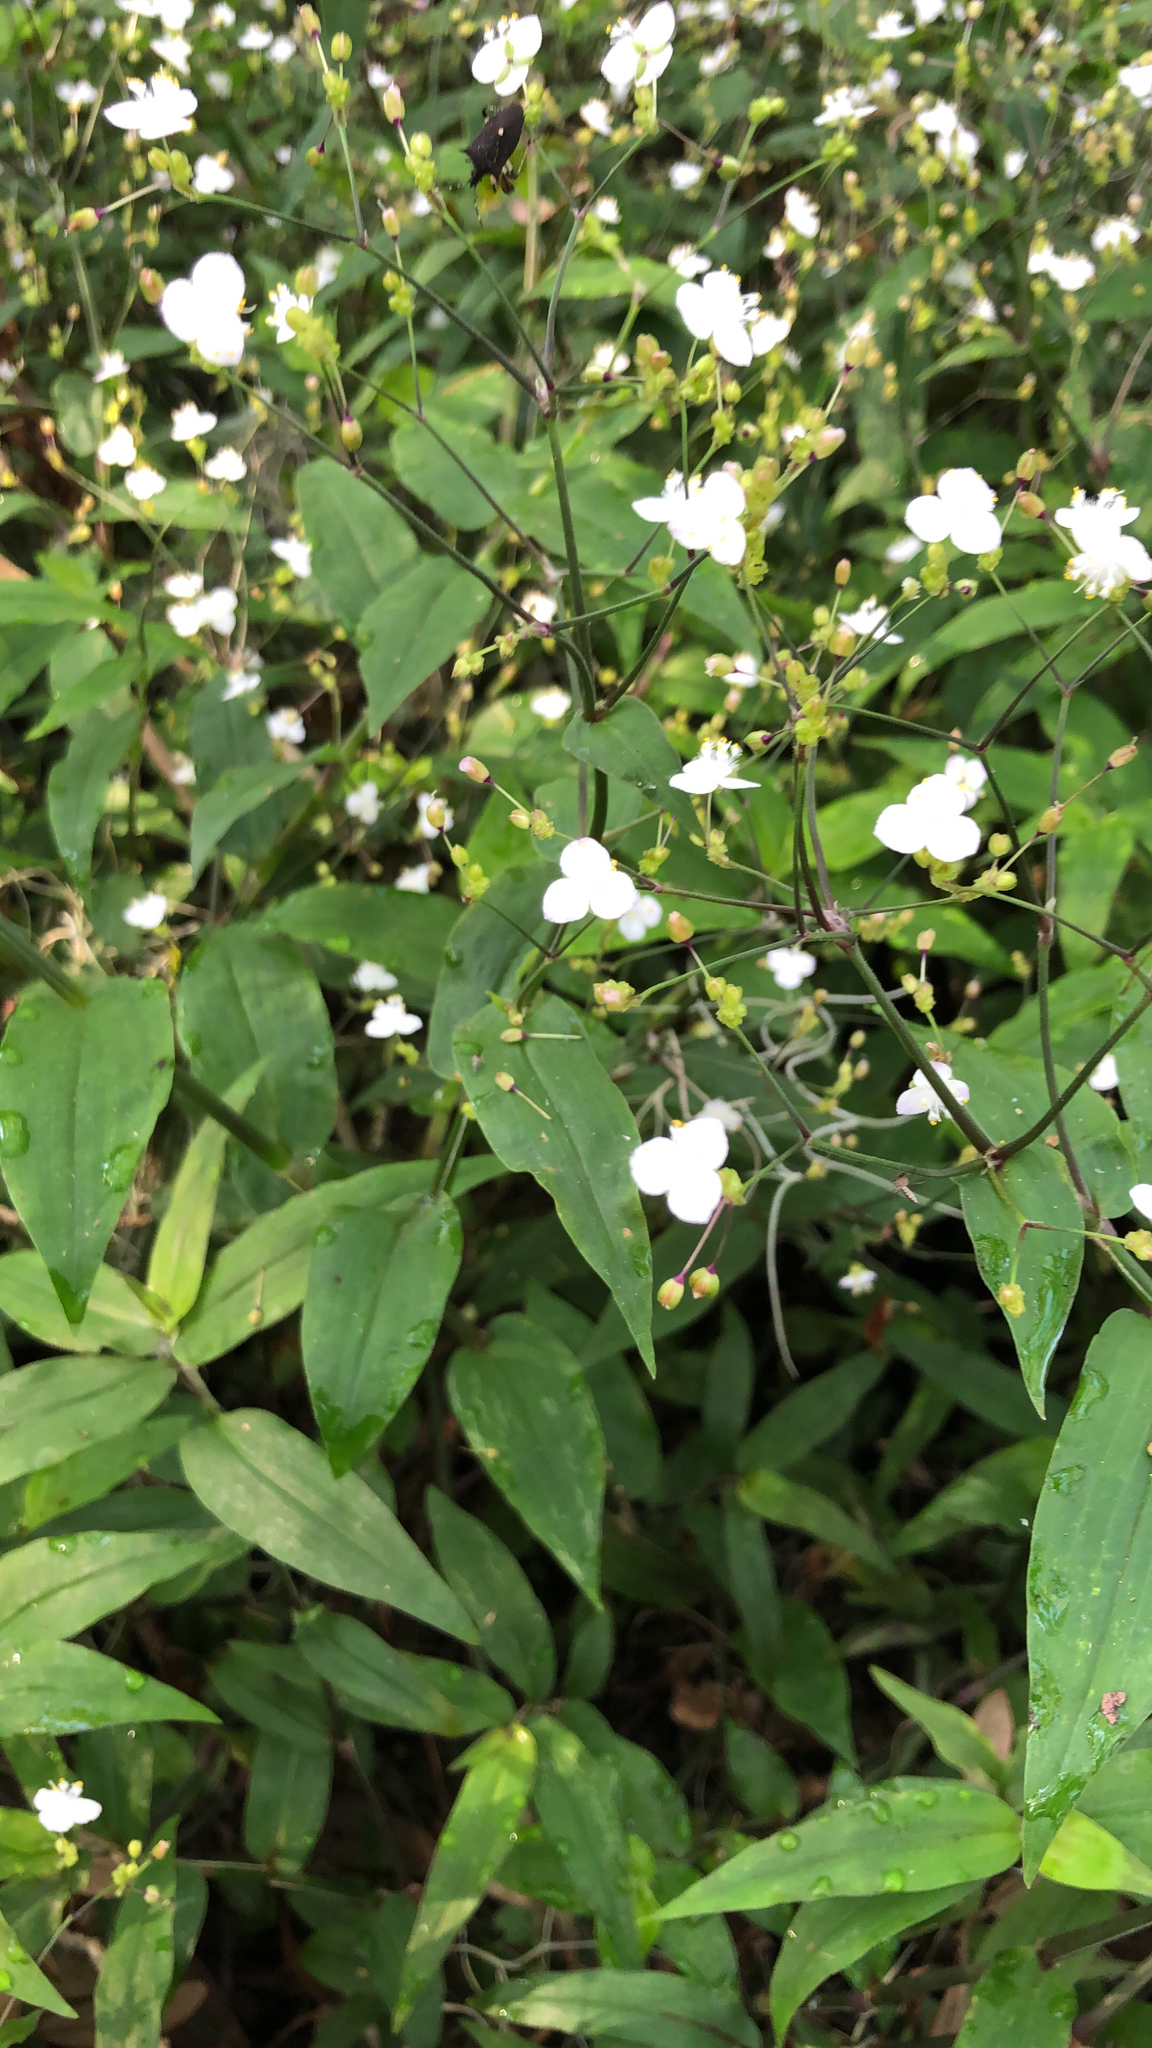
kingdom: Plantae
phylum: Tracheophyta
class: Liliopsida
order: Commelinales
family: Commelinaceae
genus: Gibasis
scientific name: Gibasis pellucida
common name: Dotted bridalveil
